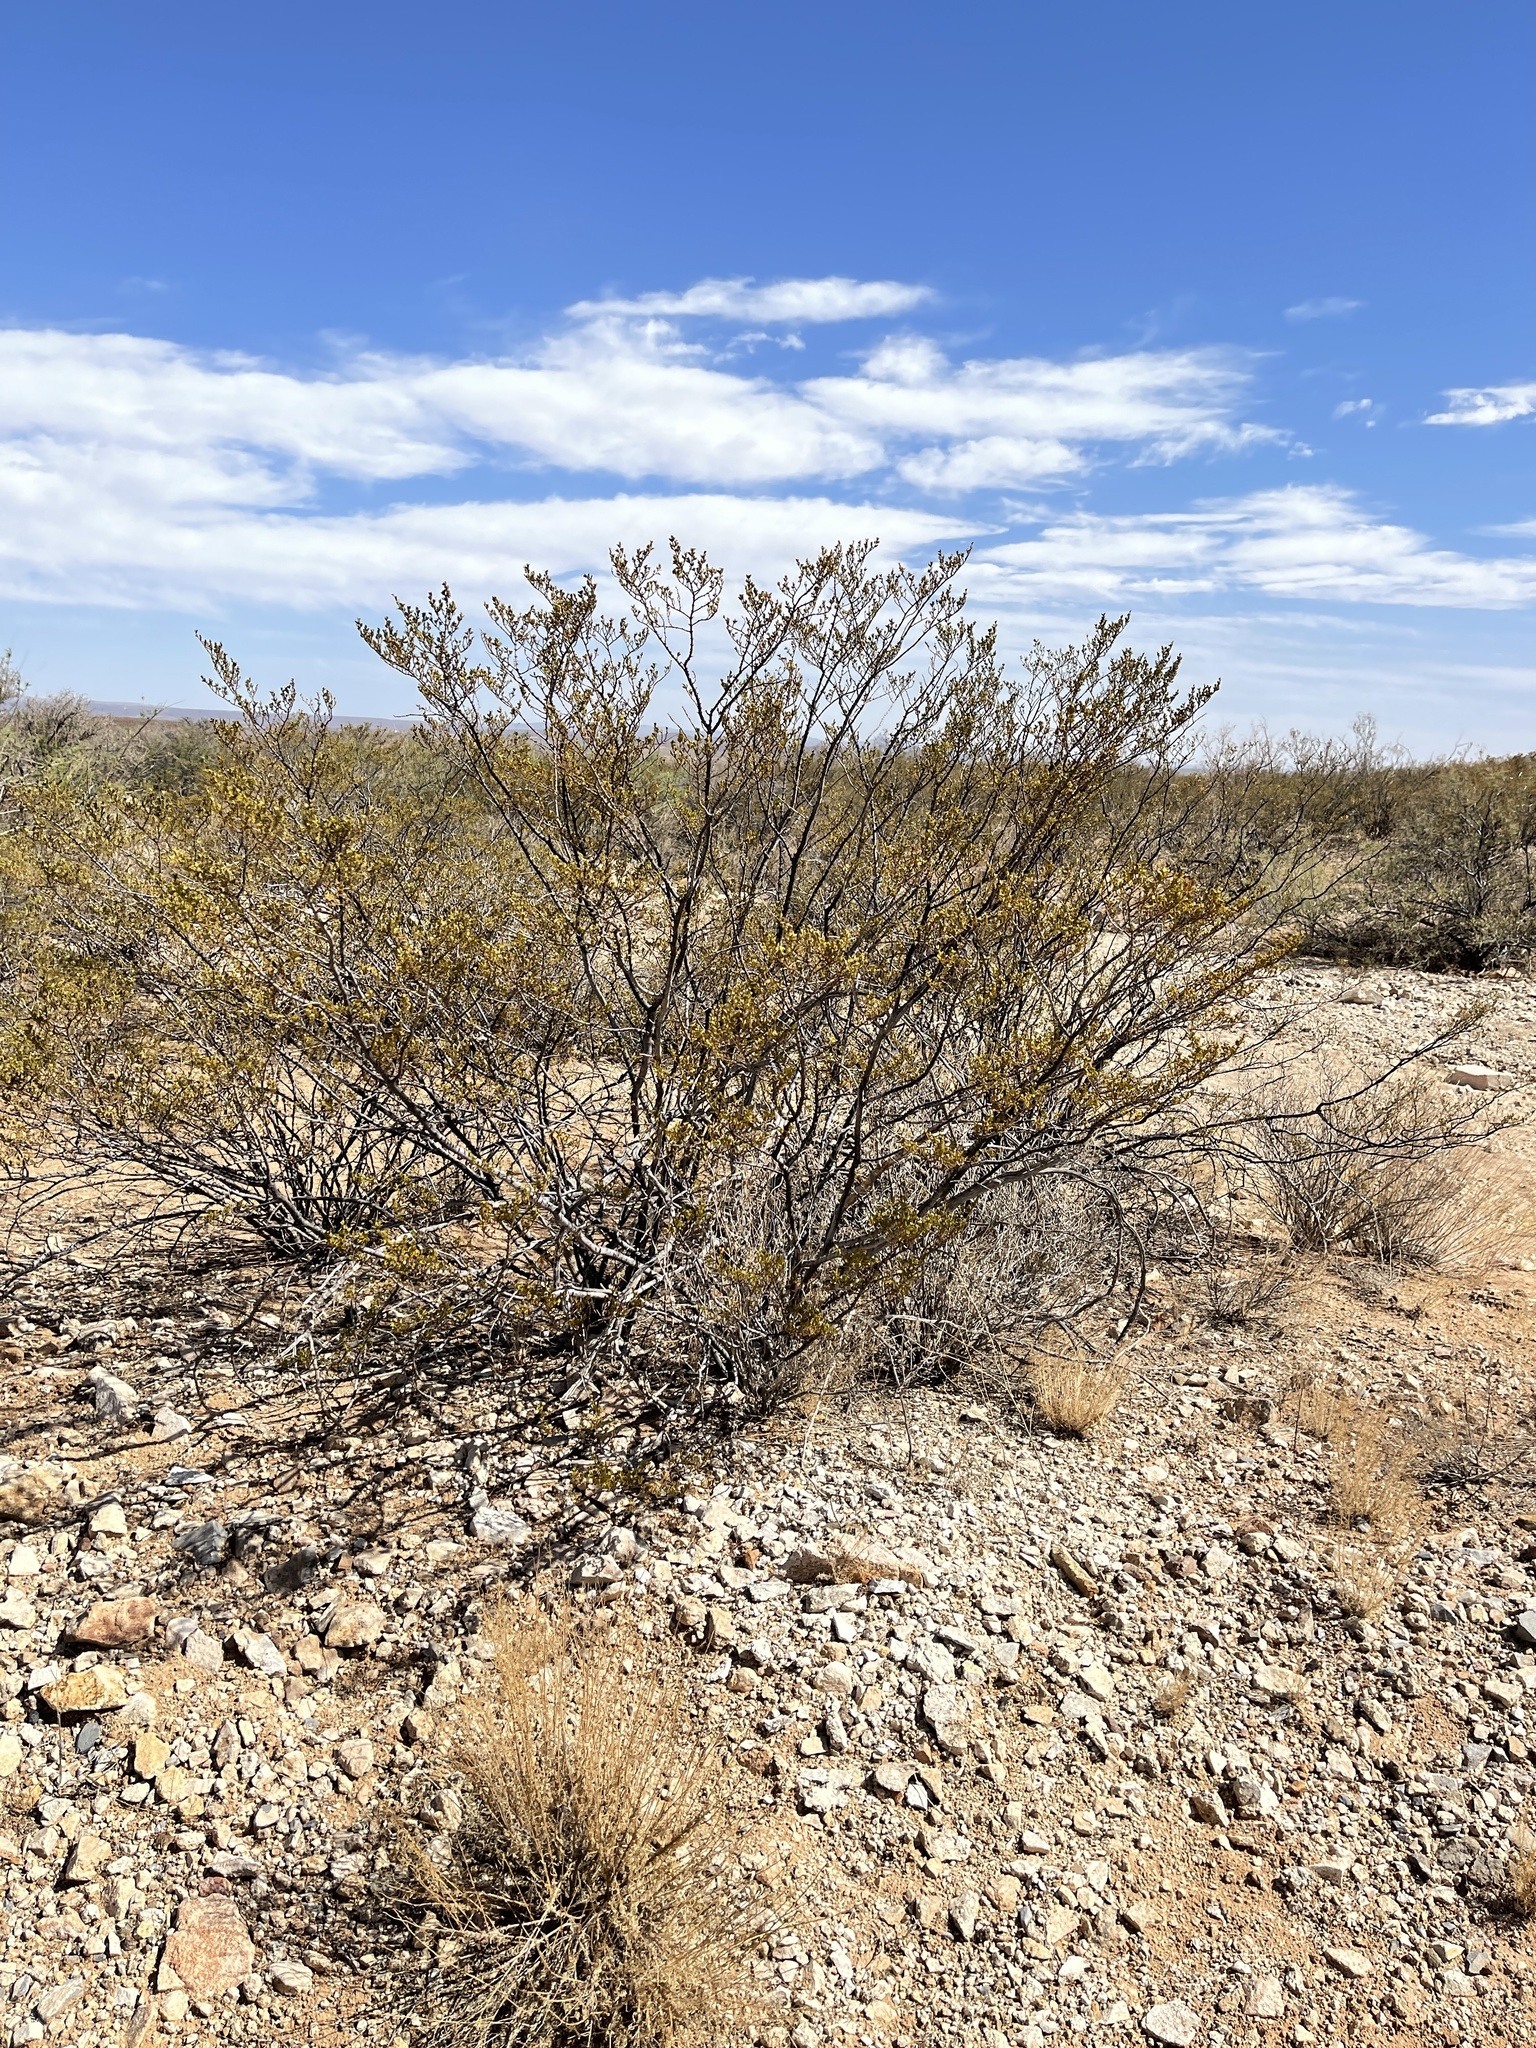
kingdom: Plantae
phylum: Tracheophyta
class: Magnoliopsida
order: Zygophyllales
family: Zygophyllaceae
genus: Larrea
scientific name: Larrea tridentata
